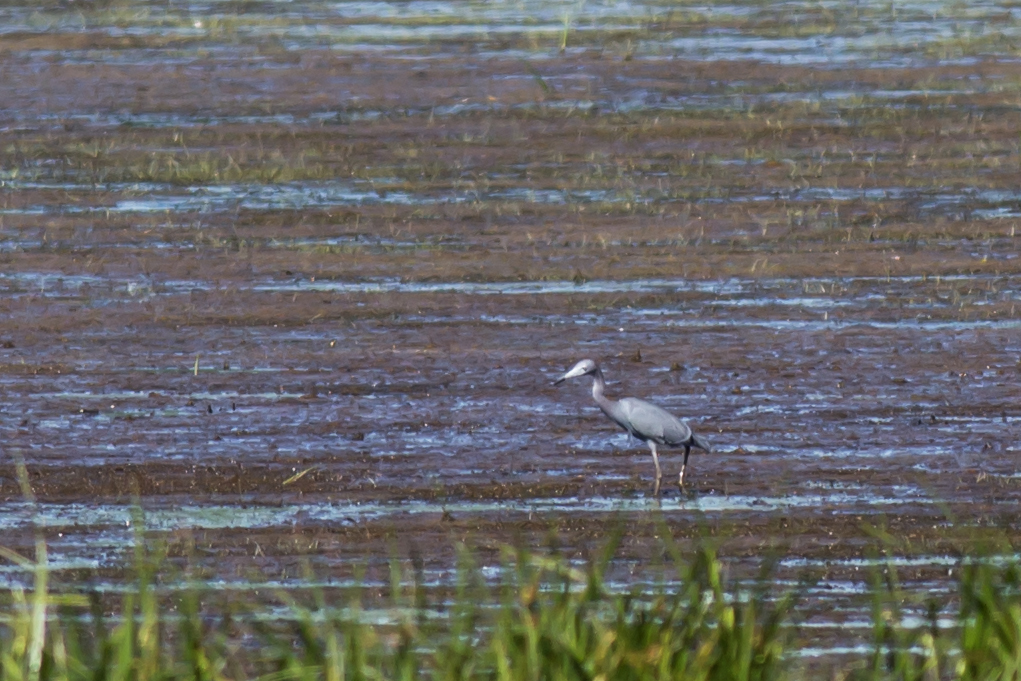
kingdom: Animalia
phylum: Chordata
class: Aves
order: Pelecaniformes
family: Ardeidae
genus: Egretta
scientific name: Egretta caerulea
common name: Little blue heron
